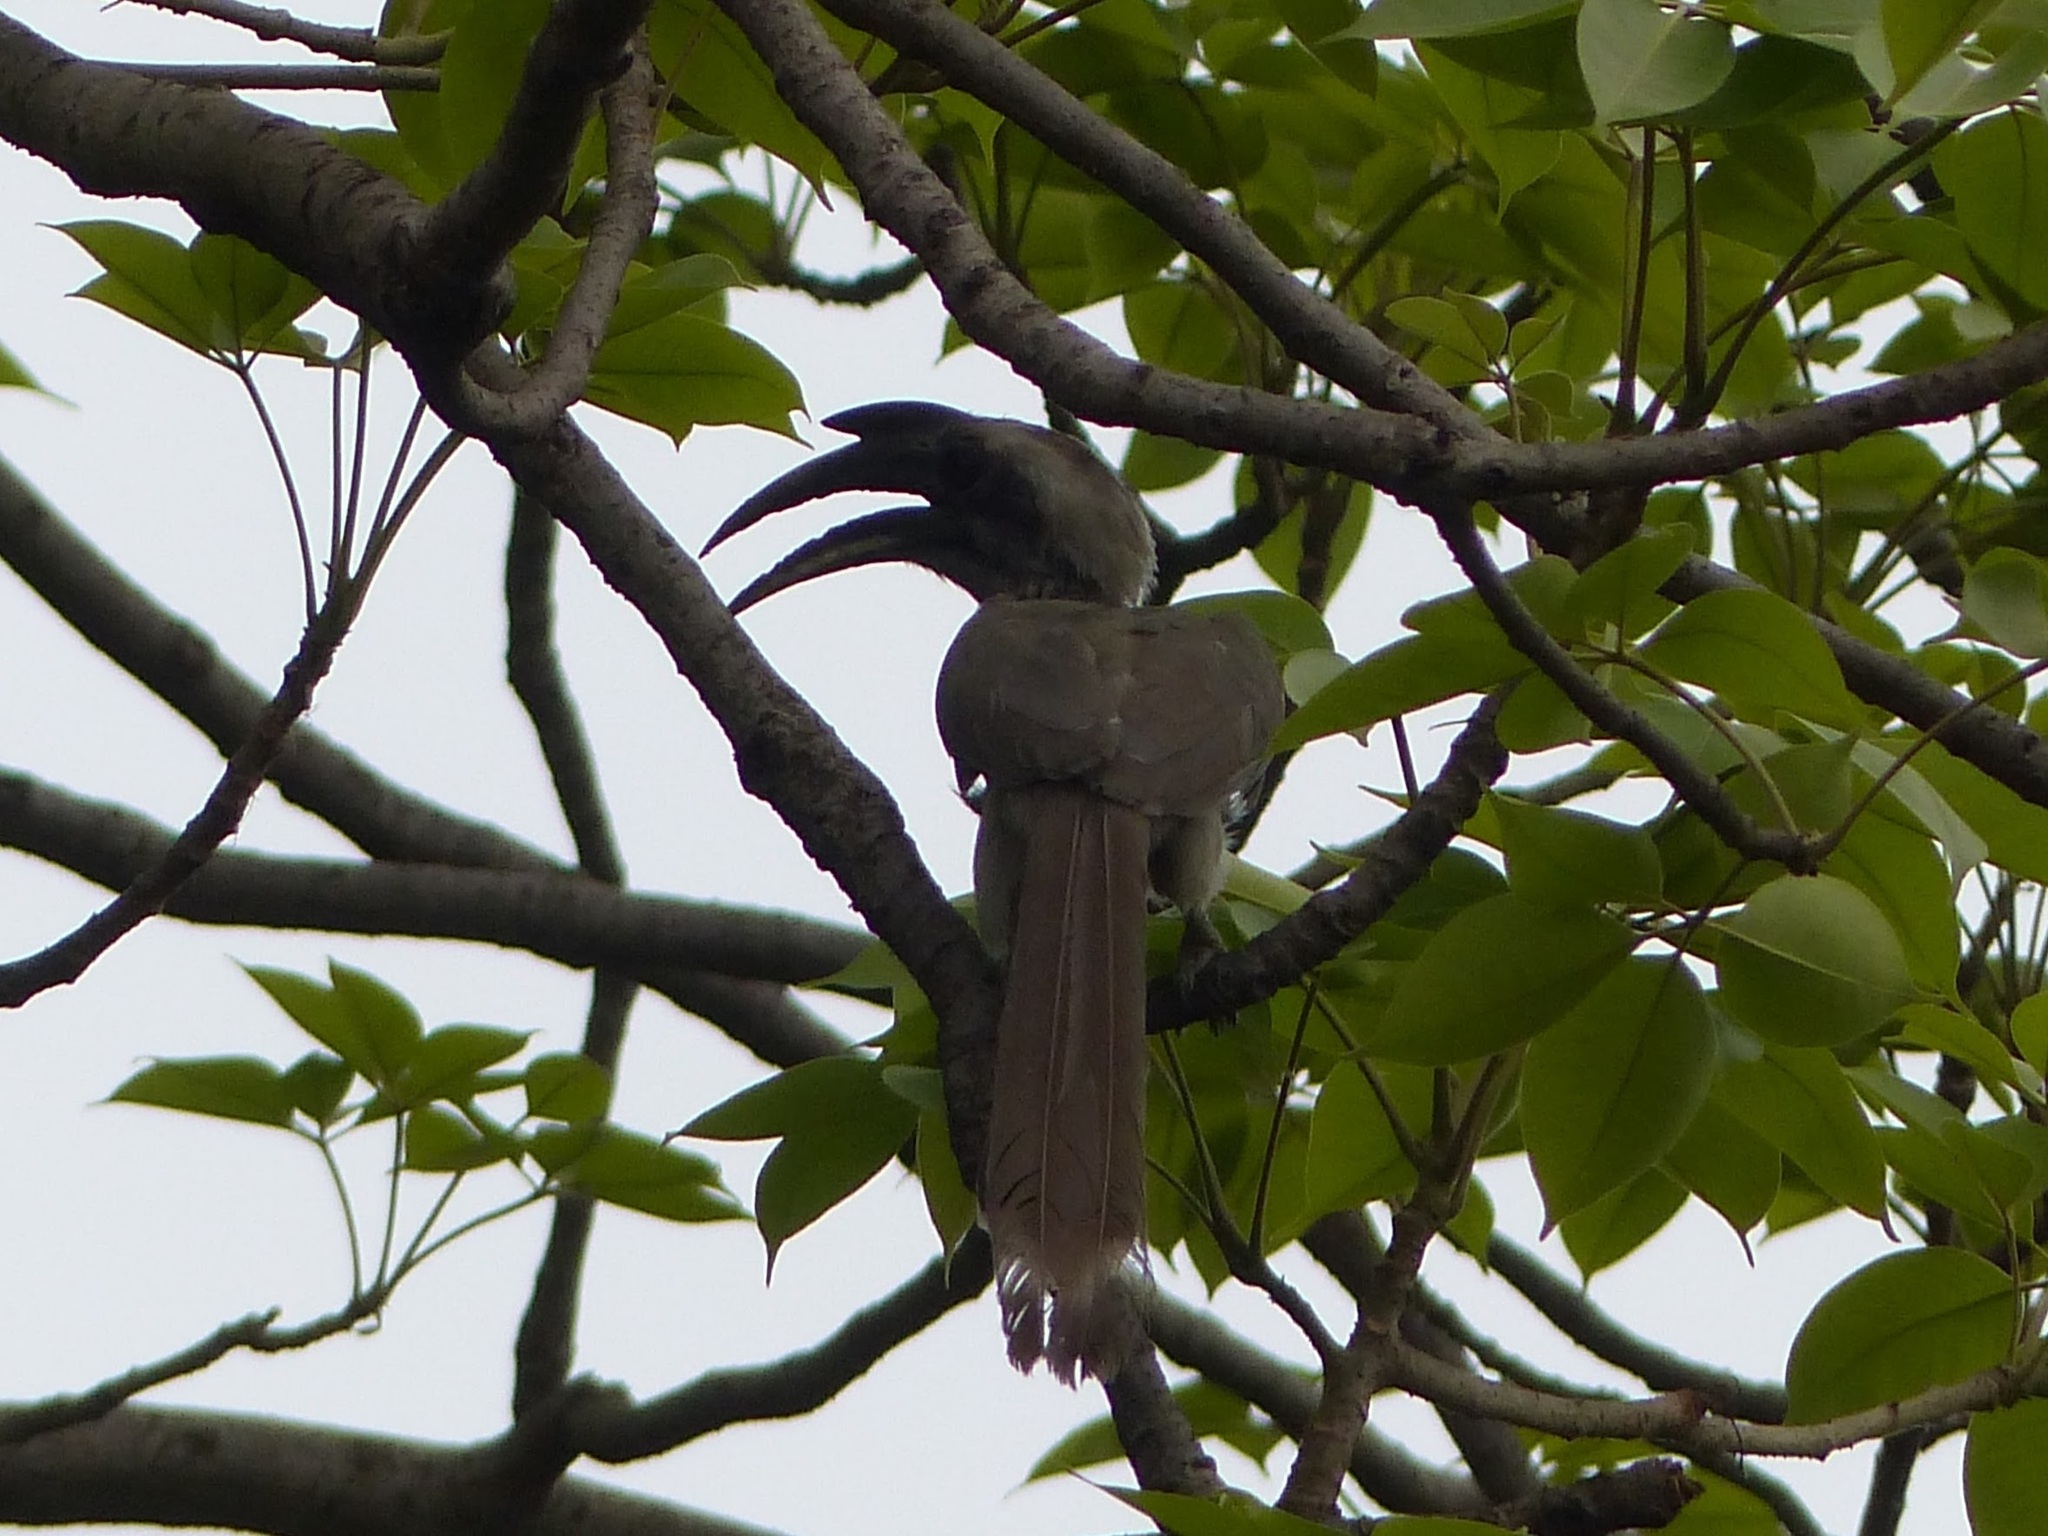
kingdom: Animalia
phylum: Chordata
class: Aves
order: Bucerotiformes
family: Bucerotidae
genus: Ocyceros
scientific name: Ocyceros birostris
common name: Indian grey hornbill
